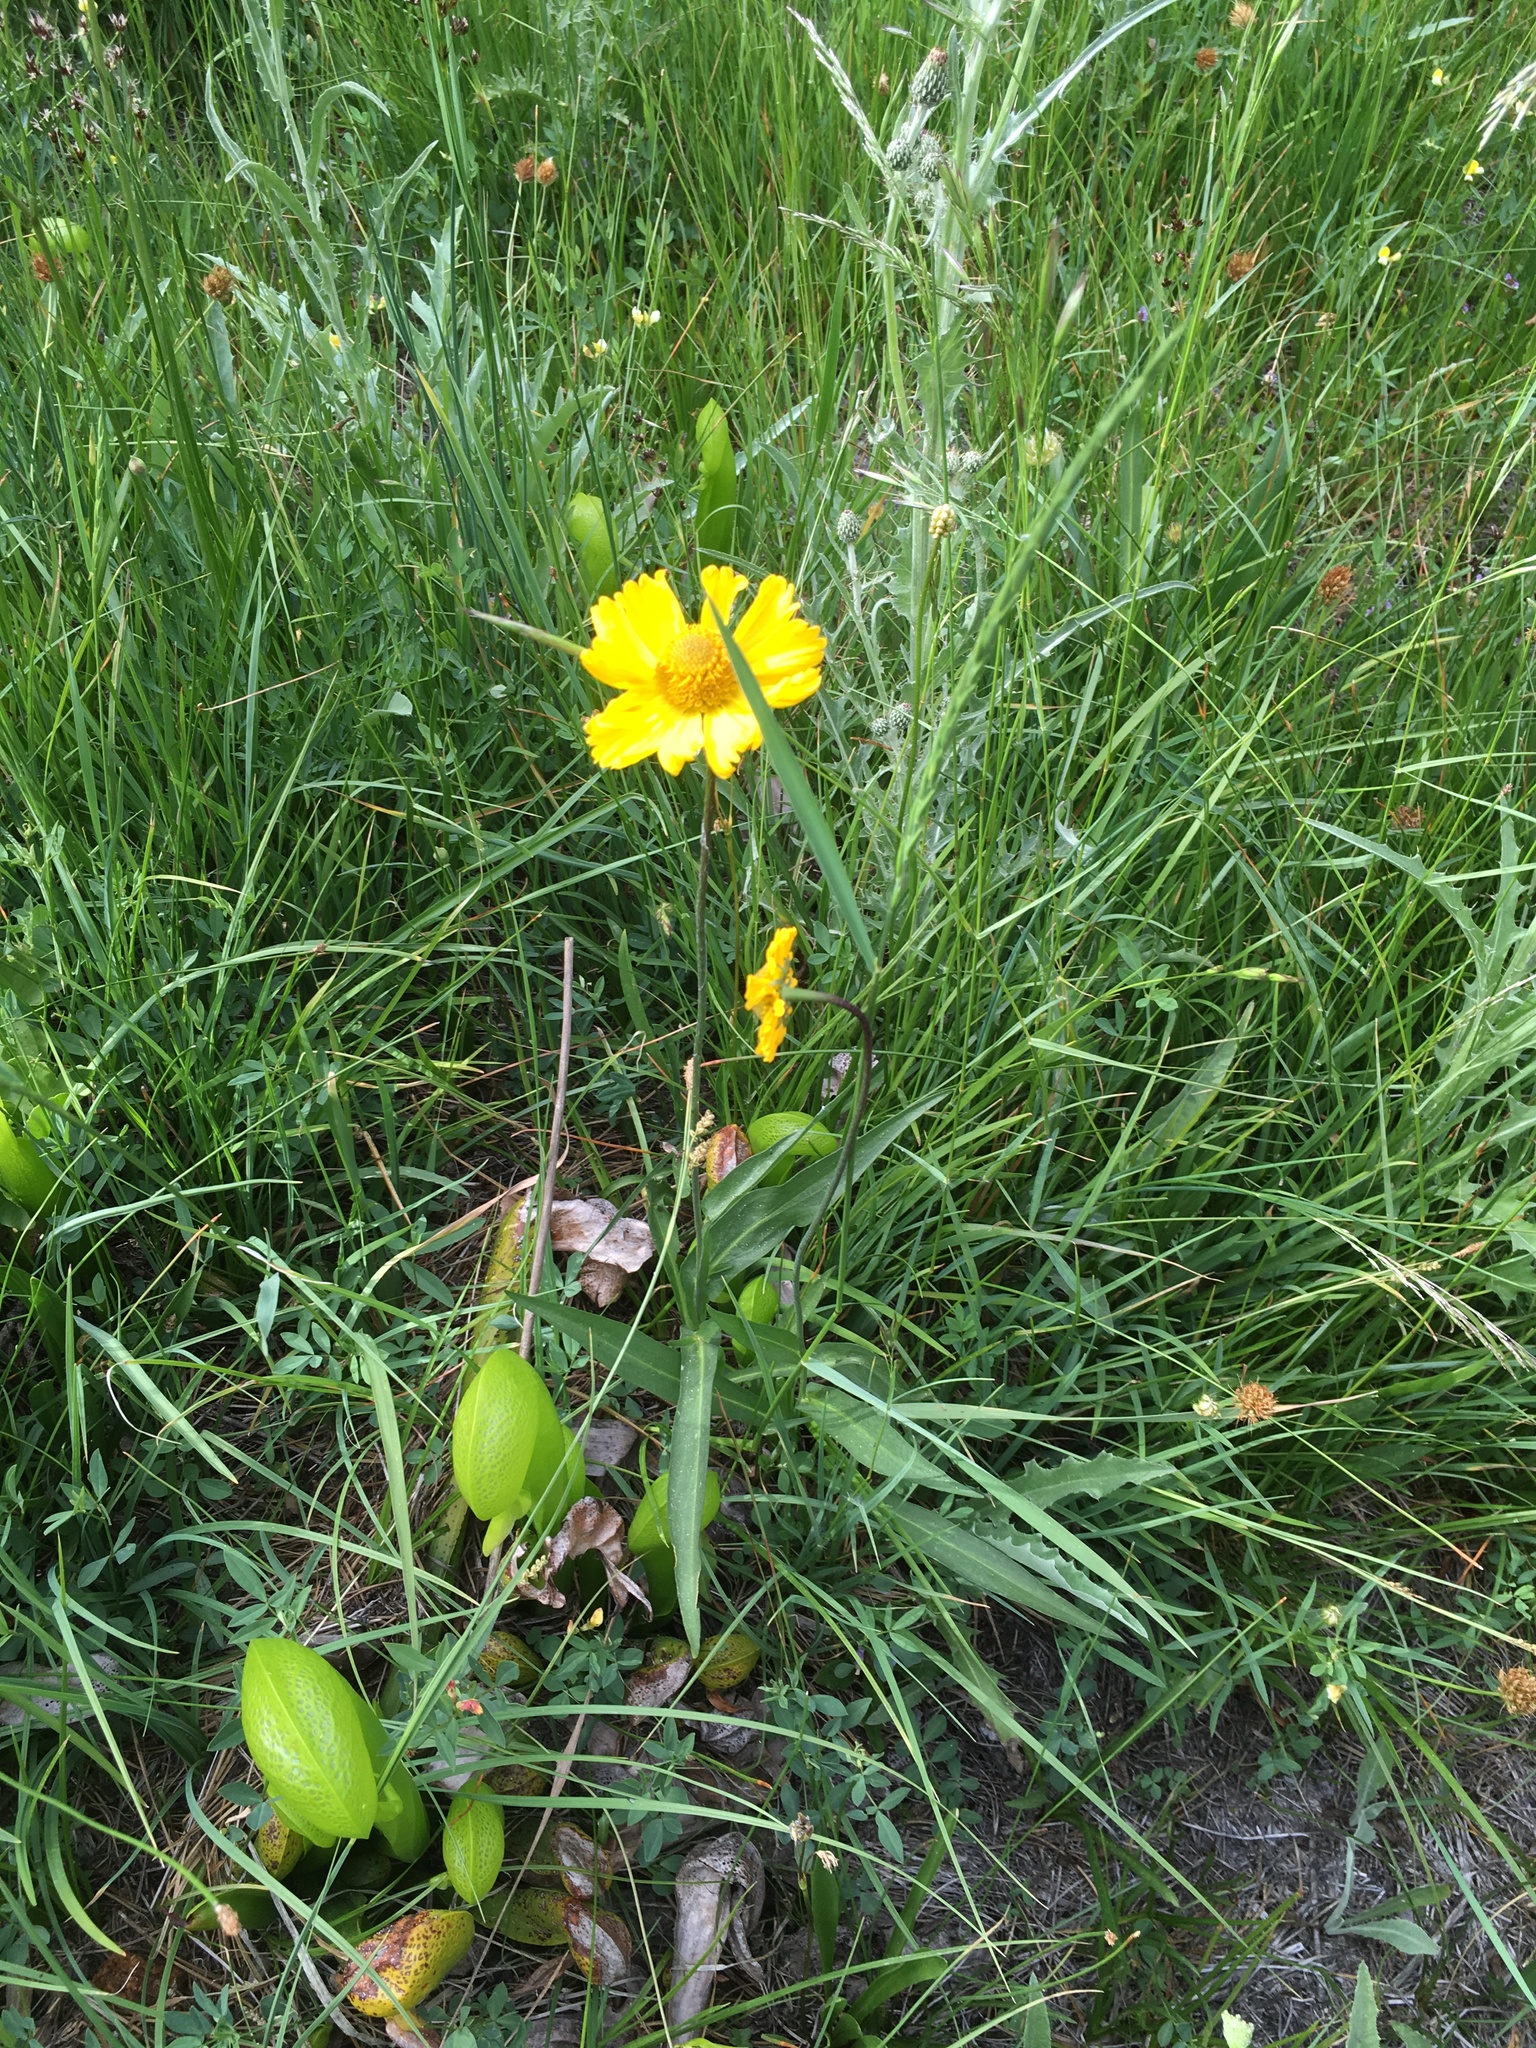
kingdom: Plantae
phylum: Tracheophyta
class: Magnoliopsida
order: Asterales
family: Asteraceae
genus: Helenium
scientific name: Helenium bigelovii
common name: Bigelow's sneezeweed
